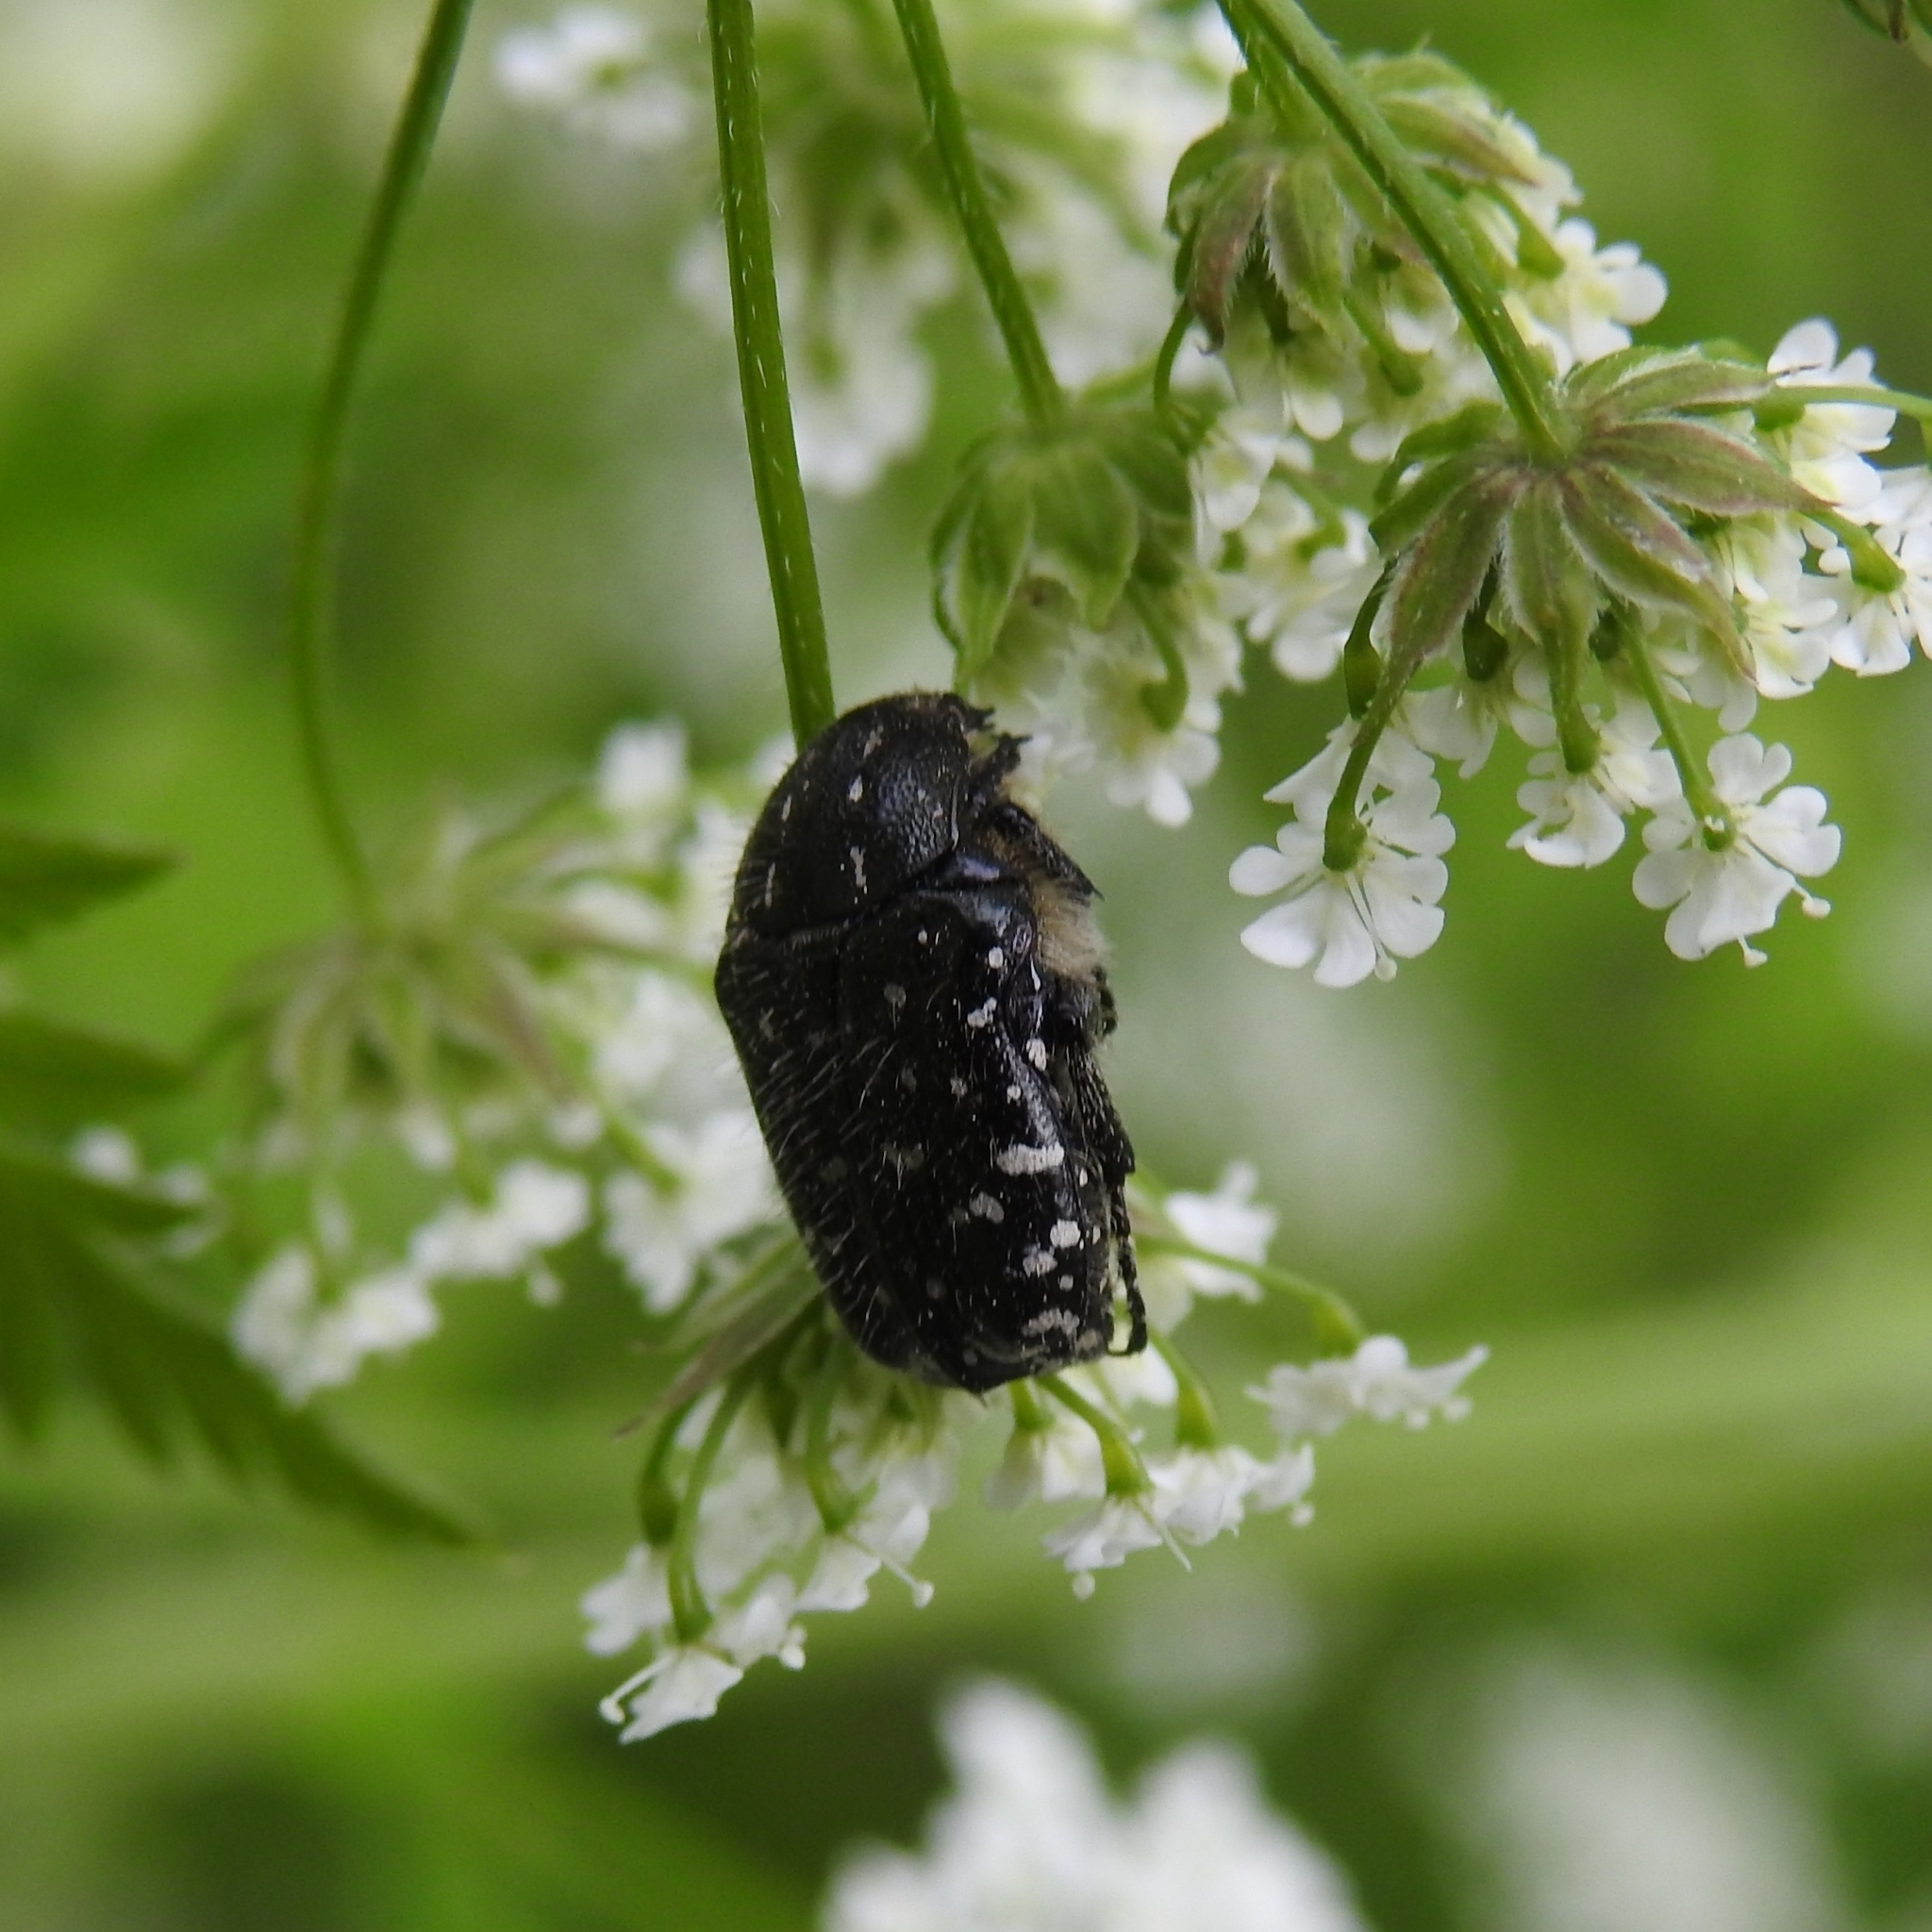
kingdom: Animalia
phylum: Arthropoda
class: Insecta
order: Coleoptera
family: Scarabaeidae
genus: Oxythyrea
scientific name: Oxythyrea funesta
